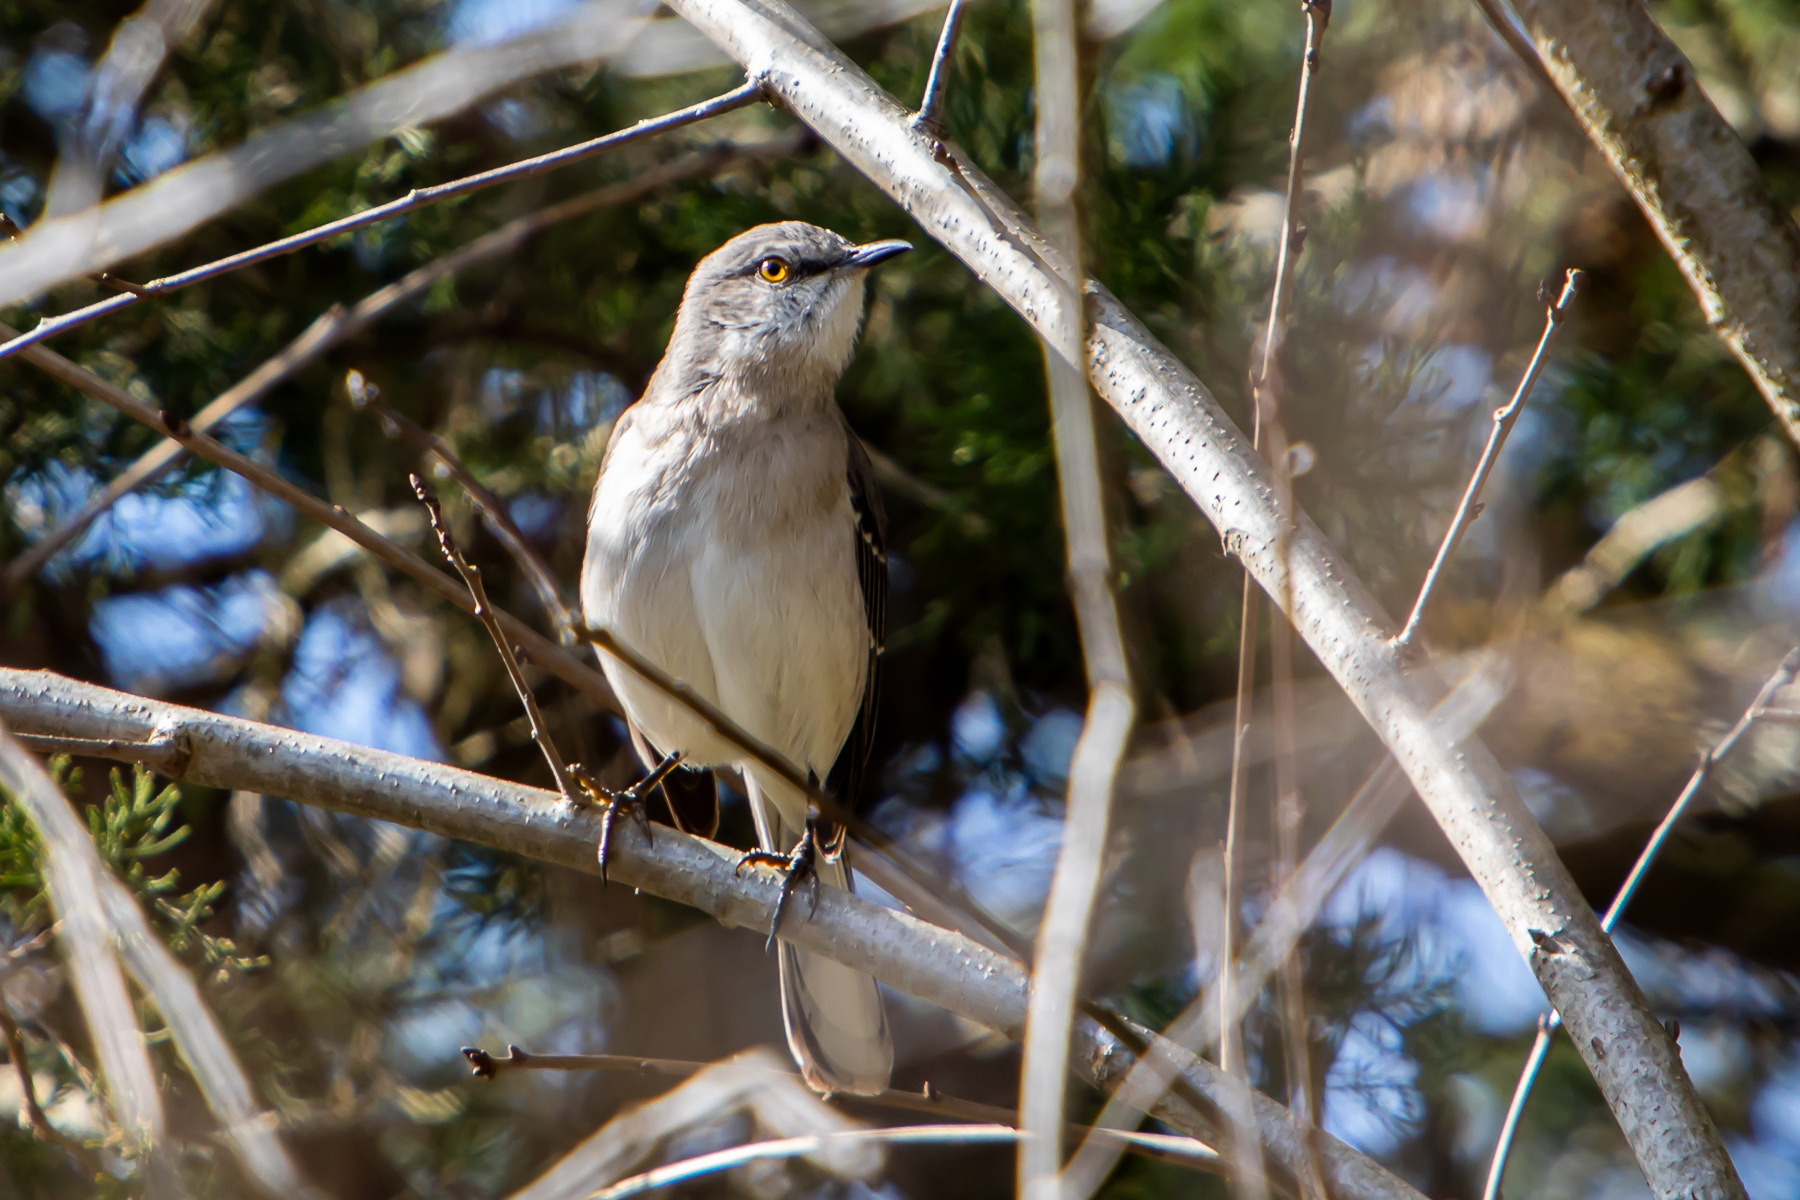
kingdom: Animalia
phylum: Chordata
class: Aves
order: Passeriformes
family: Mimidae
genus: Mimus
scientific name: Mimus polyglottos
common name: Northern mockingbird
